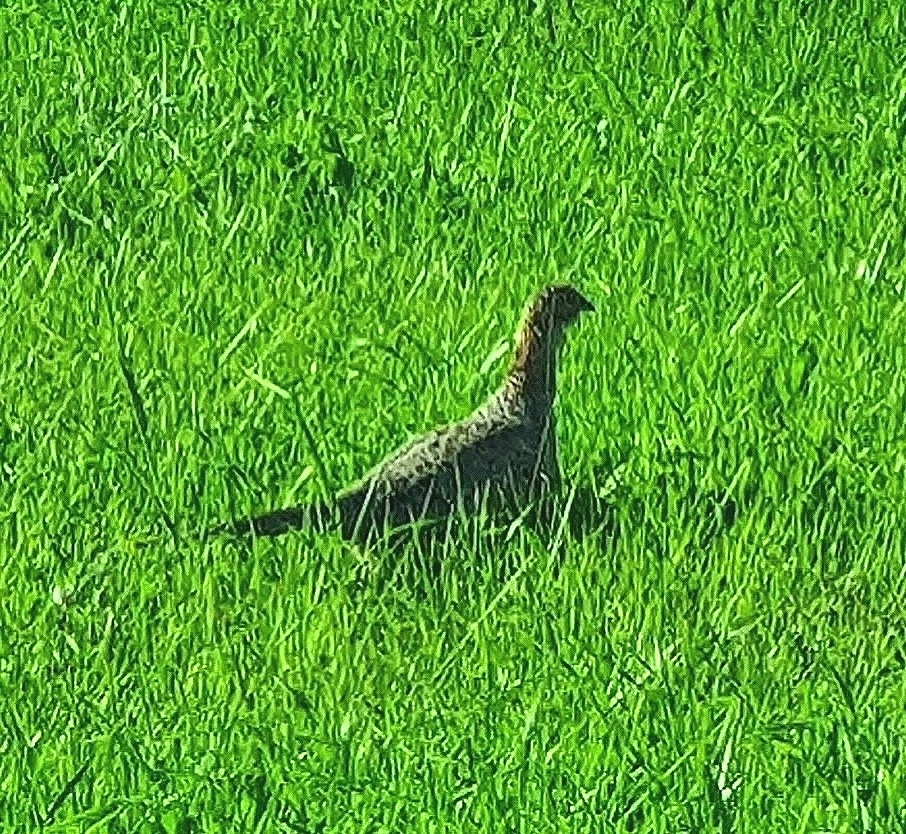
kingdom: Animalia
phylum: Chordata
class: Aves
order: Galliformes
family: Phasianidae
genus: Phasianus
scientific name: Phasianus colchicus
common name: Common pheasant
